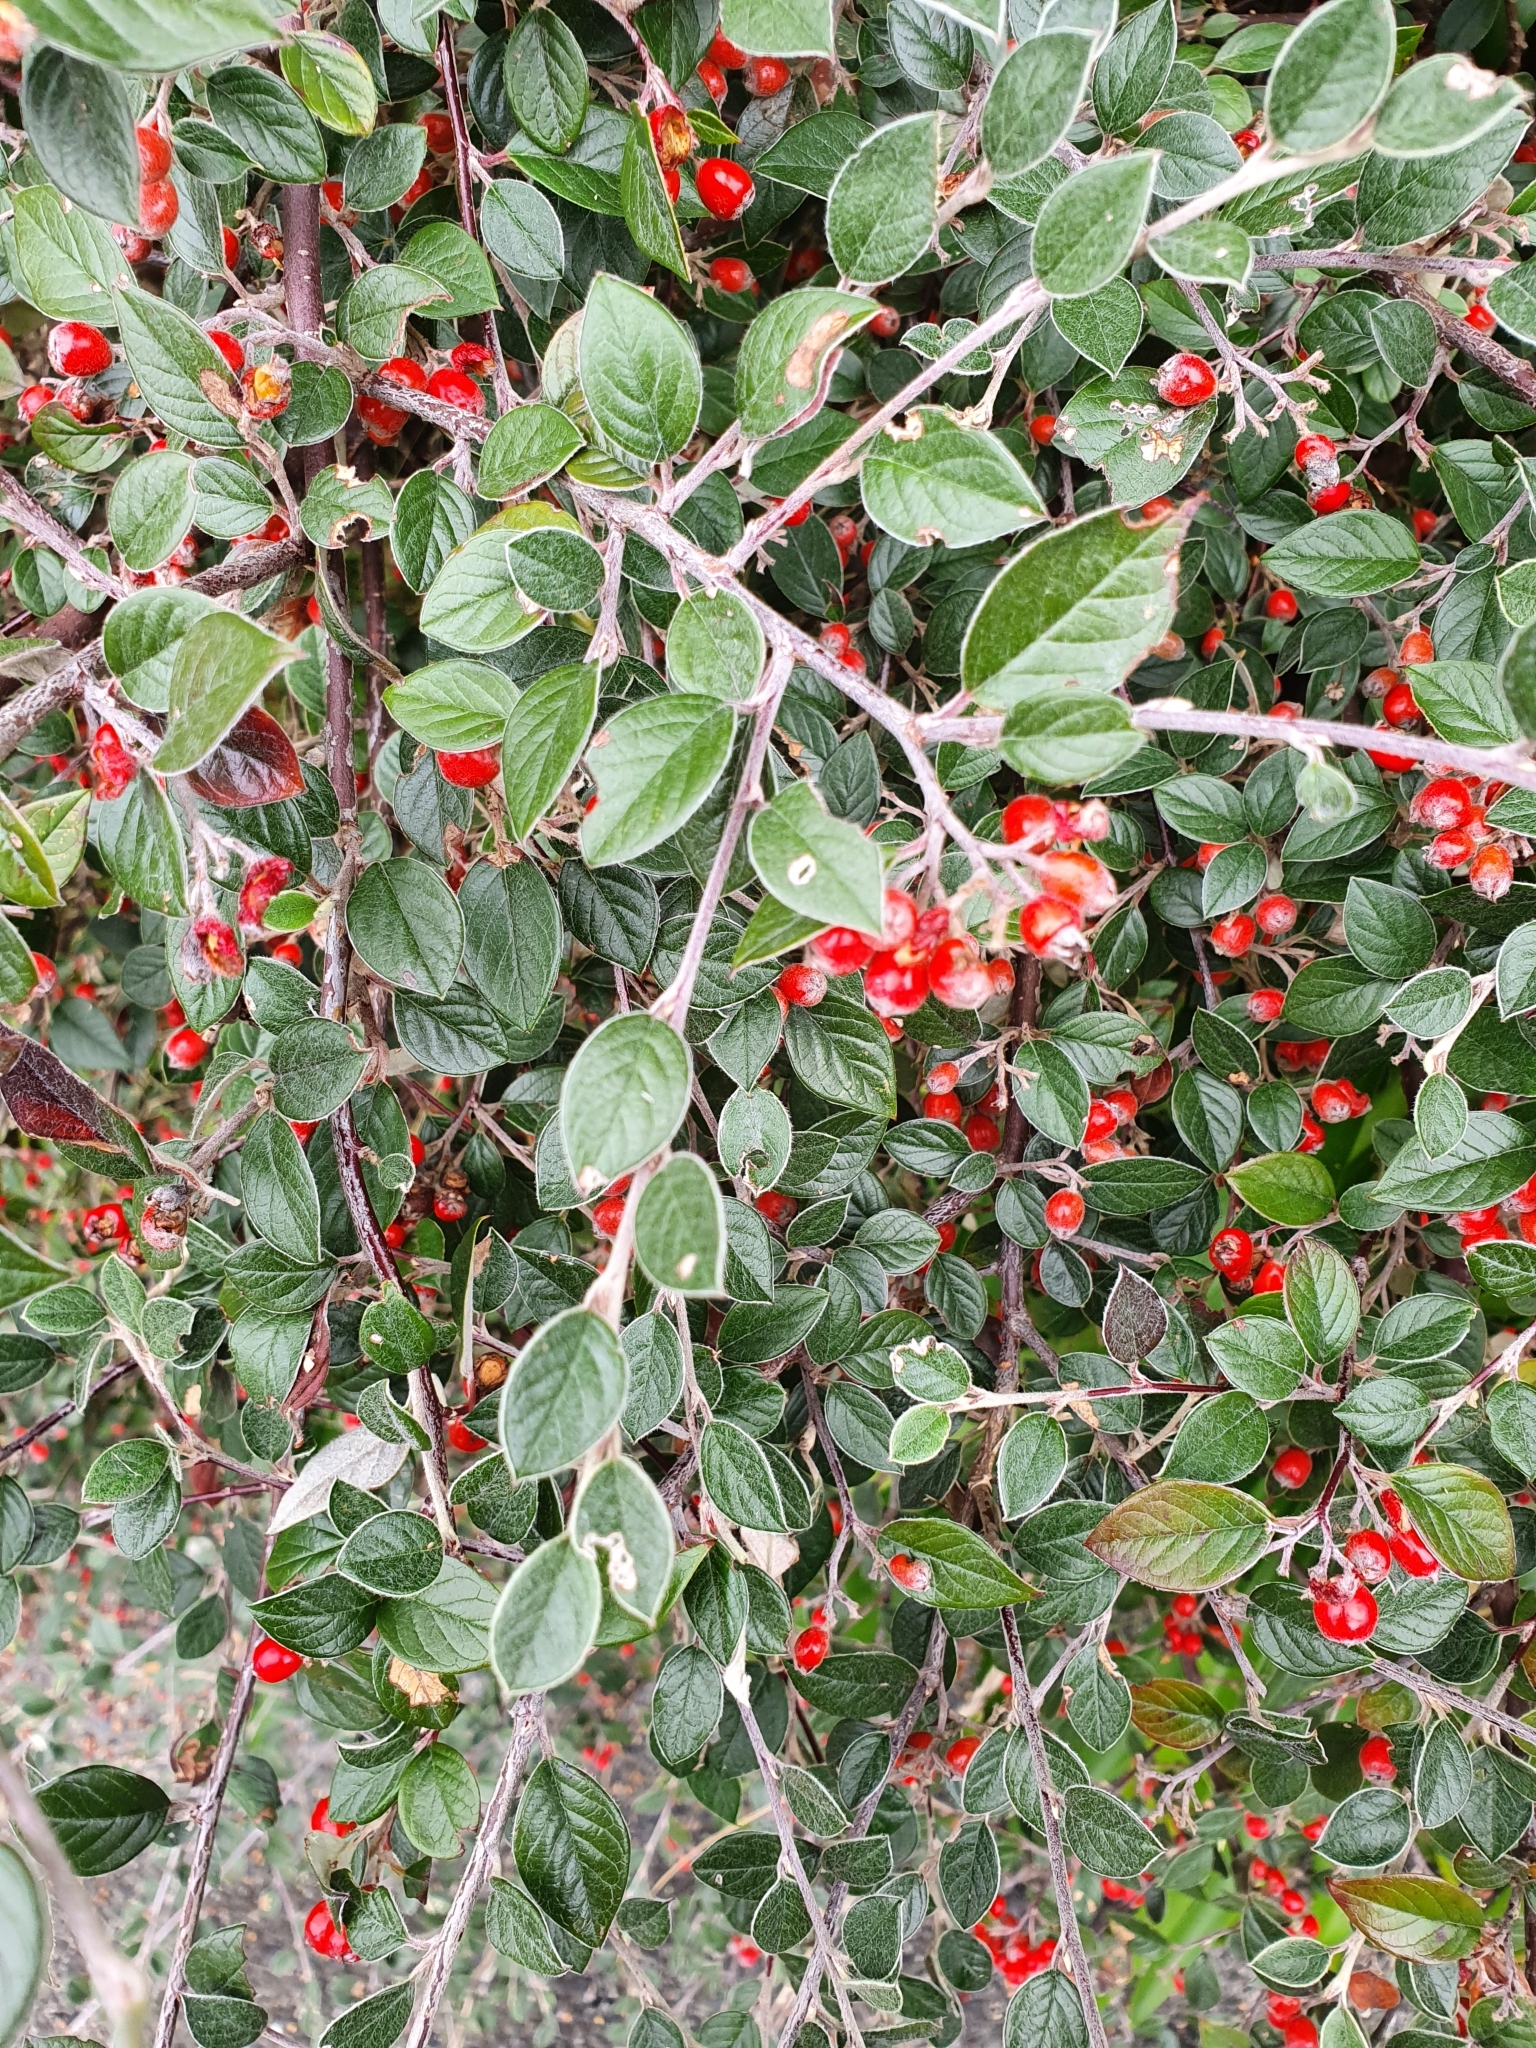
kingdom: Plantae
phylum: Tracheophyta
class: Magnoliopsida
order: Rosales
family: Rosaceae
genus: Cotoneaster
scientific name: Cotoneaster franchetii
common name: Franchet's cotoneaster
